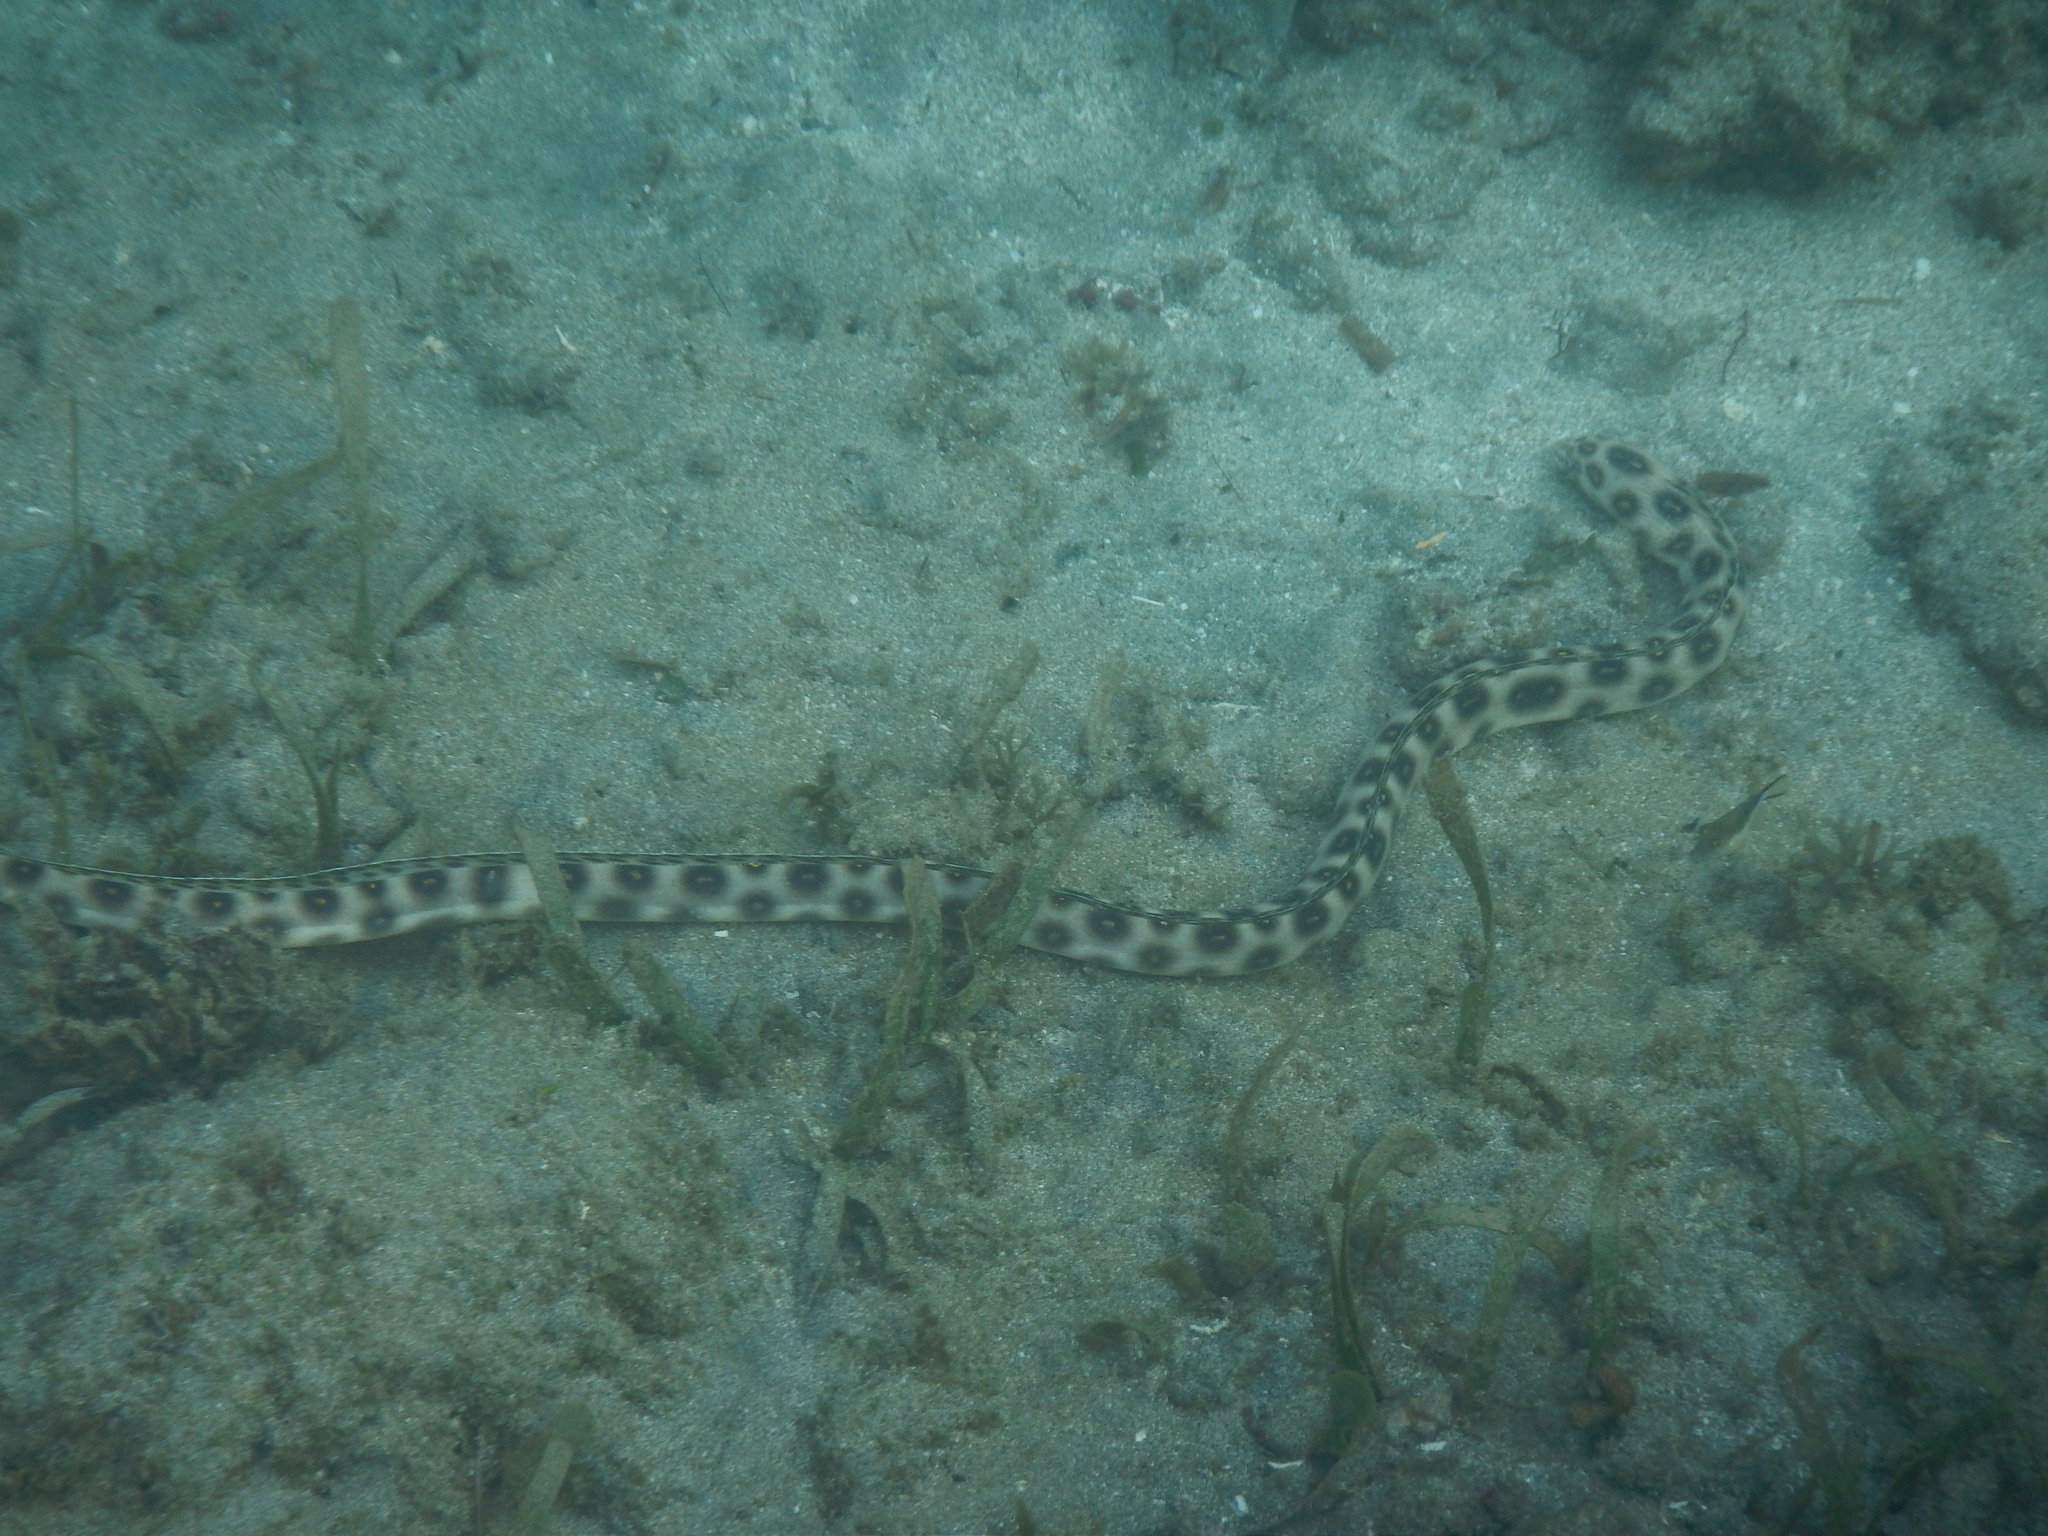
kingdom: Animalia
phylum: Chordata
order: Anguilliformes
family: Ophichthidae
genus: Myrichthys
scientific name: Myrichthys ocellatus
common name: Goldspotted eel
